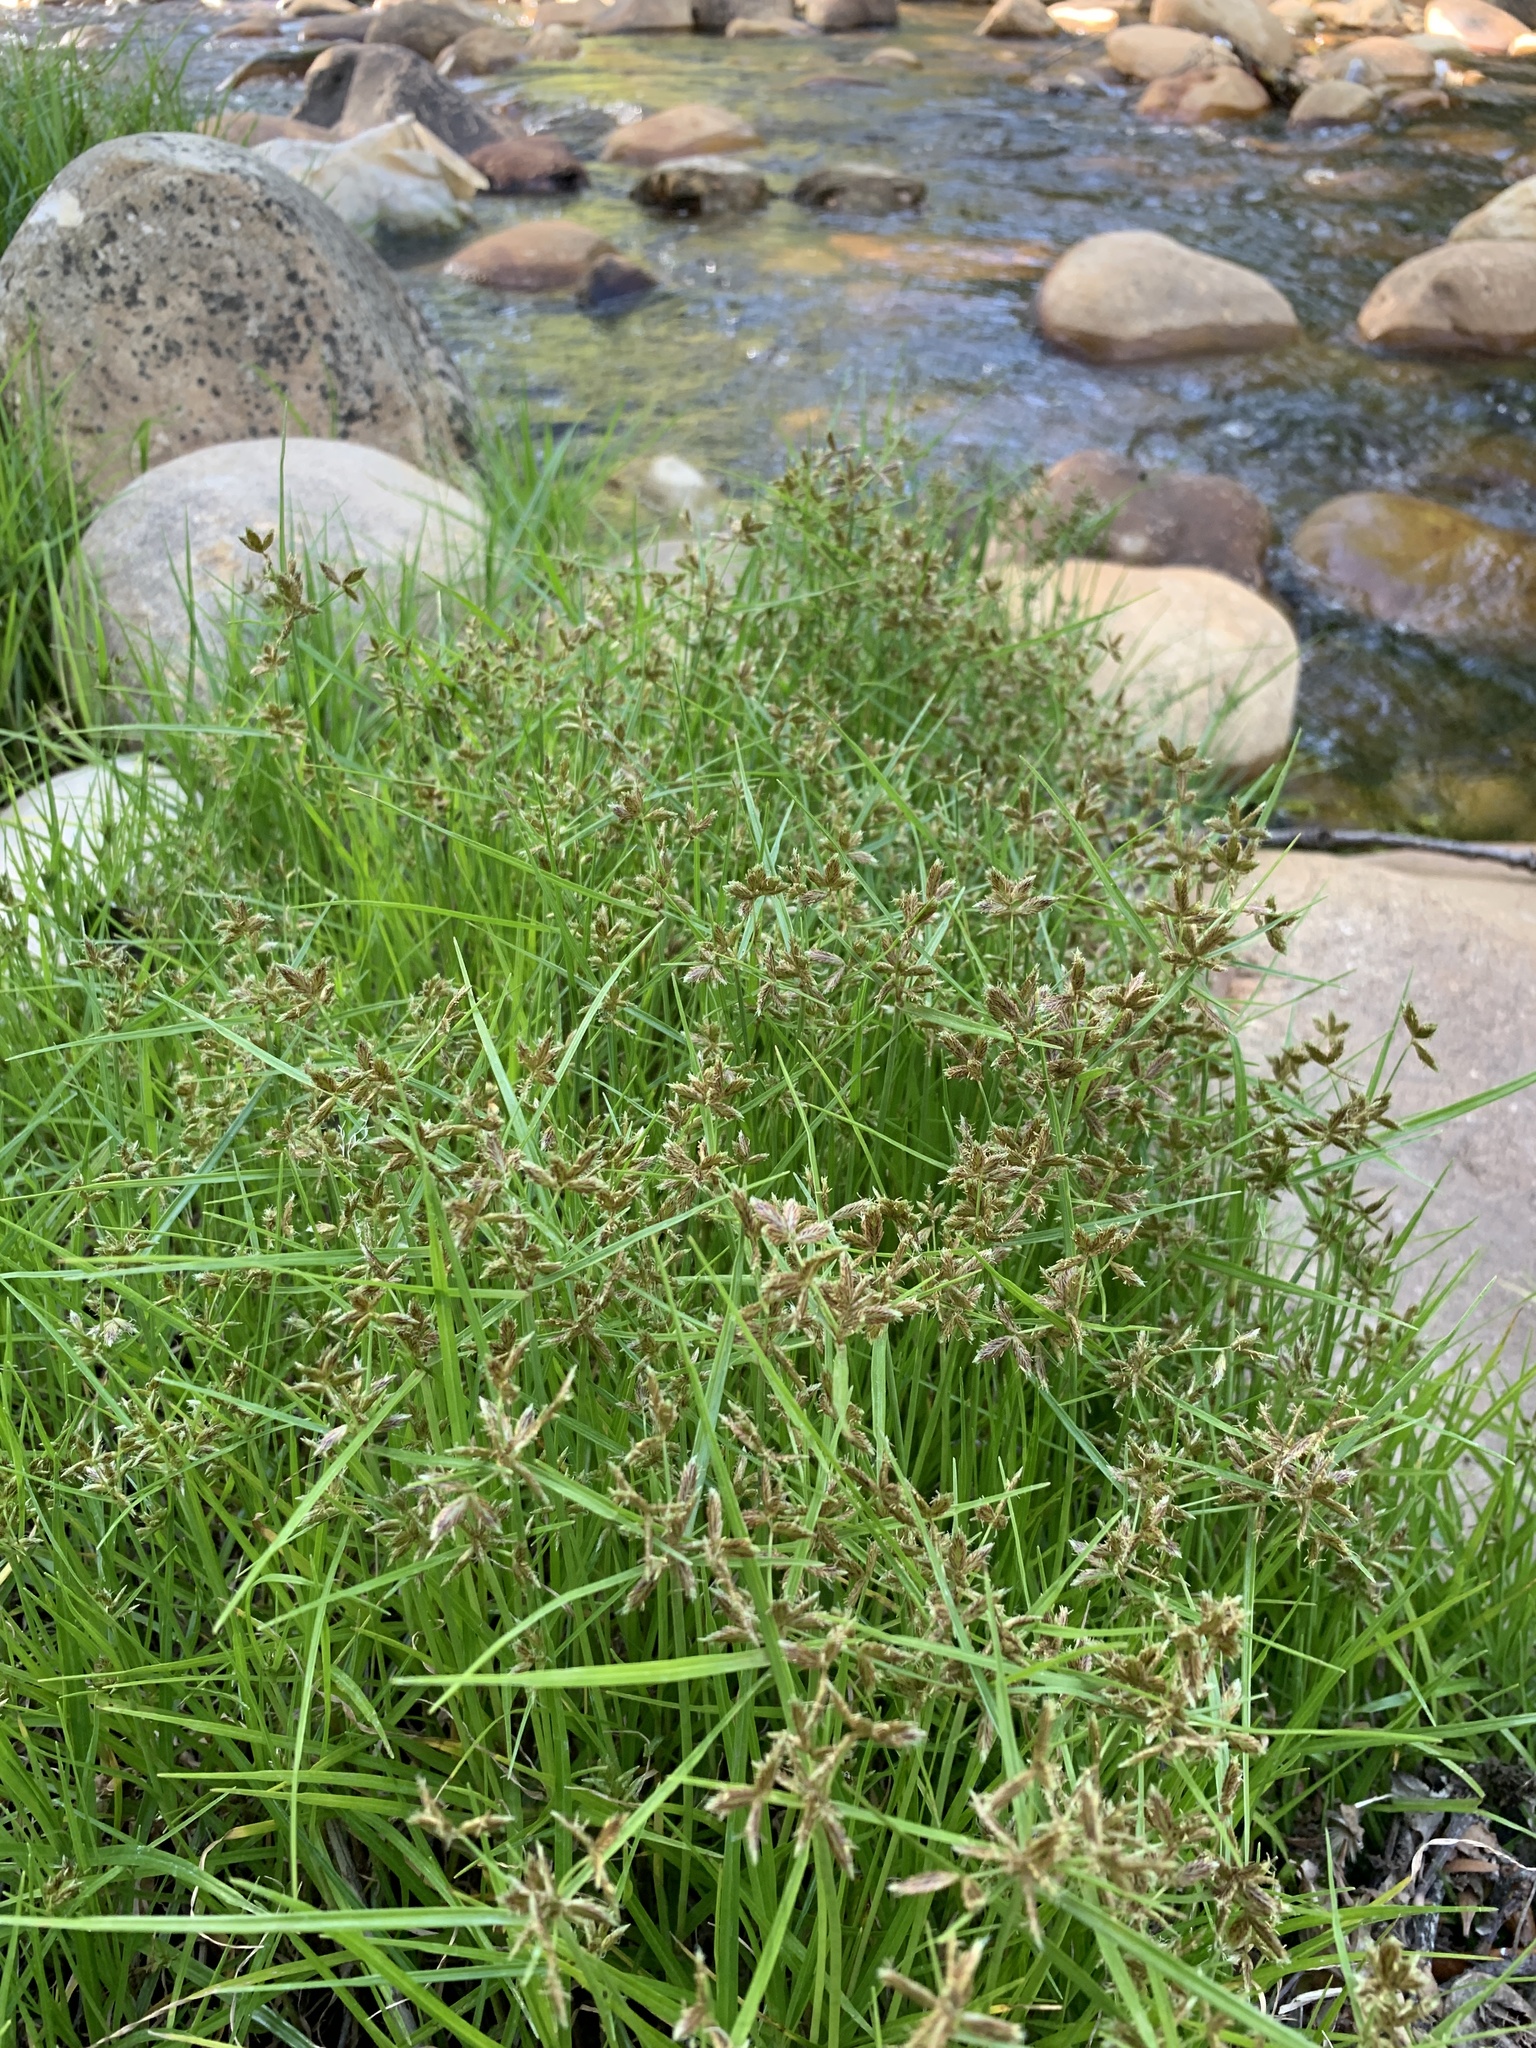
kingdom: Plantae
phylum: Tracheophyta
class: Liliopsida
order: Poales
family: Cyperaceae
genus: Cyperus
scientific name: Cyperus mundii
